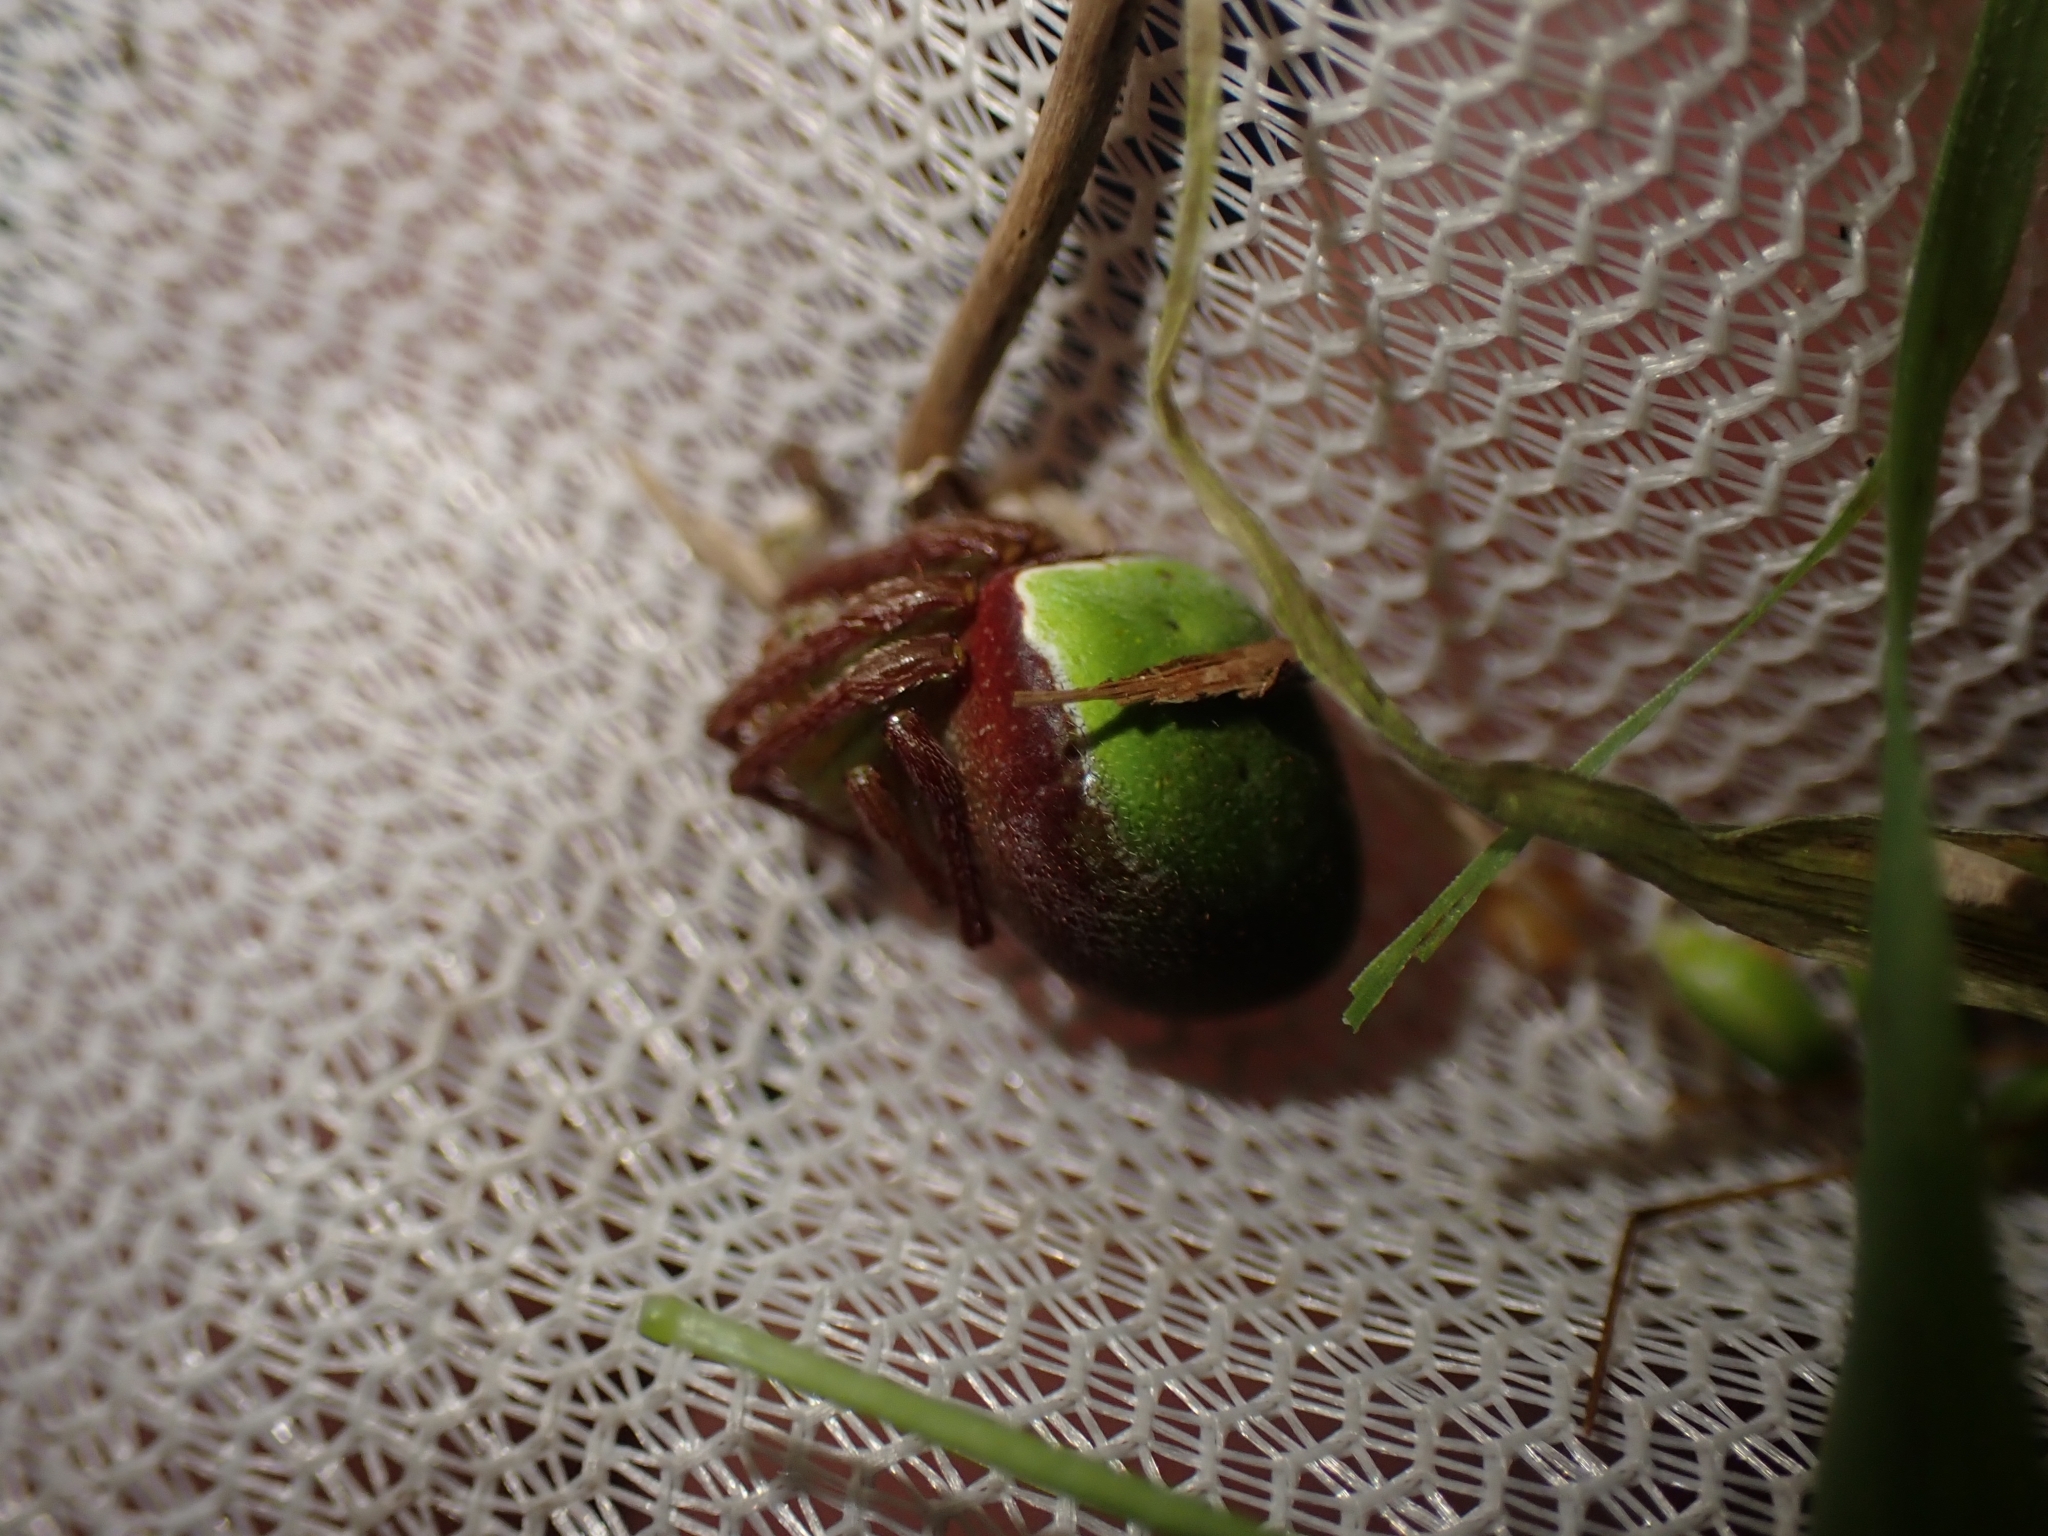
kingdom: Animalia
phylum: Arthropoda
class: Arachnida
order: Araneae
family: Araneidae
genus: Colaranea
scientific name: Colaranea viriditas
